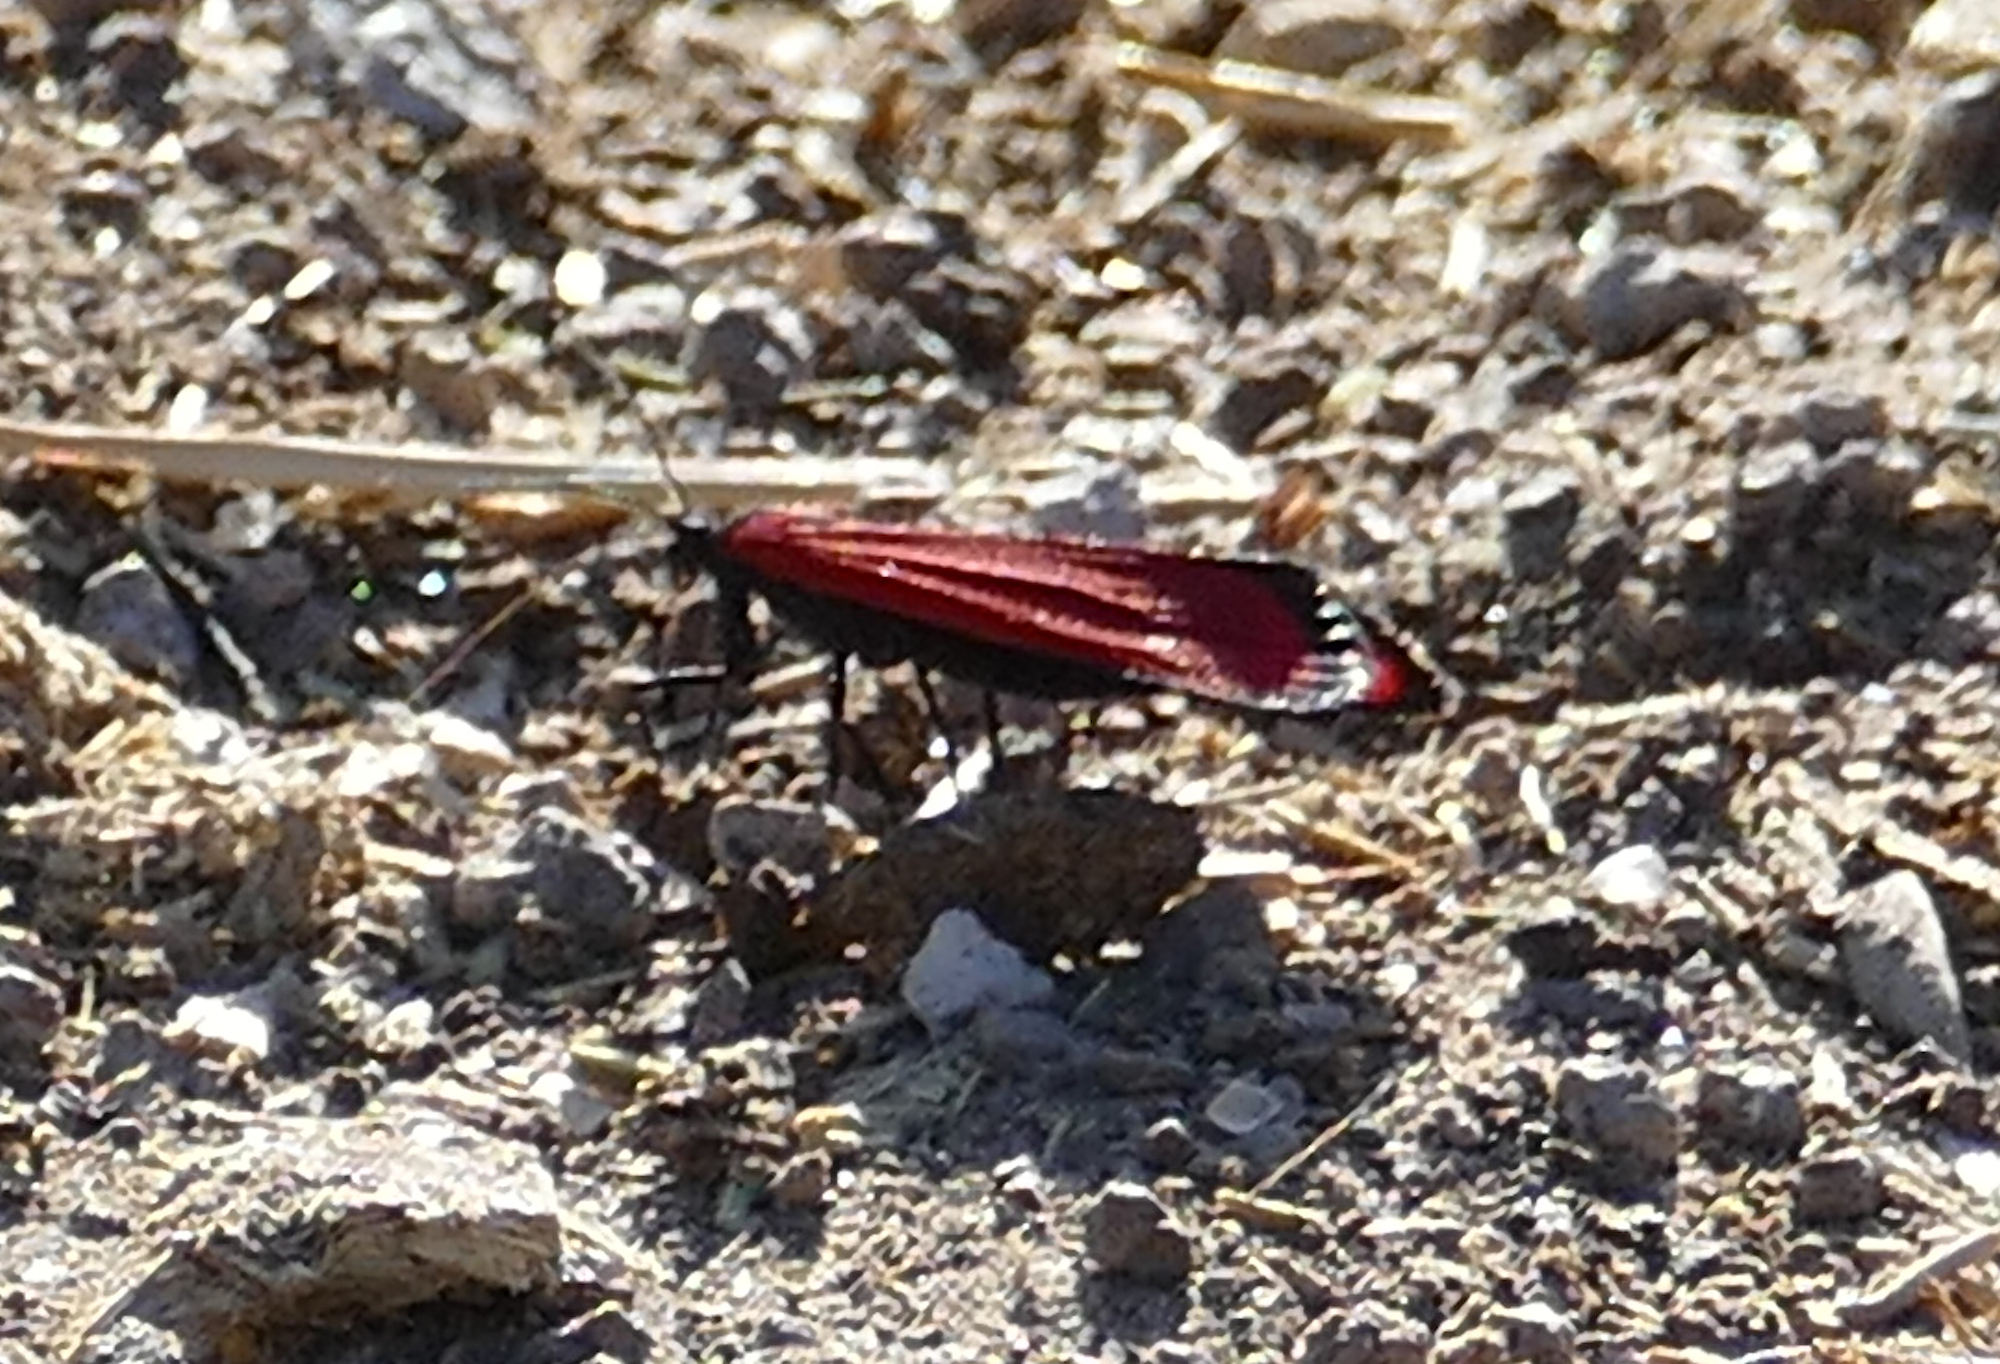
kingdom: Animalia
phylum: Arthropoda
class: Insecta
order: Lepidoptera
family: Erebidae
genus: Lycomorpha
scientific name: Lycomorpha fulgens
